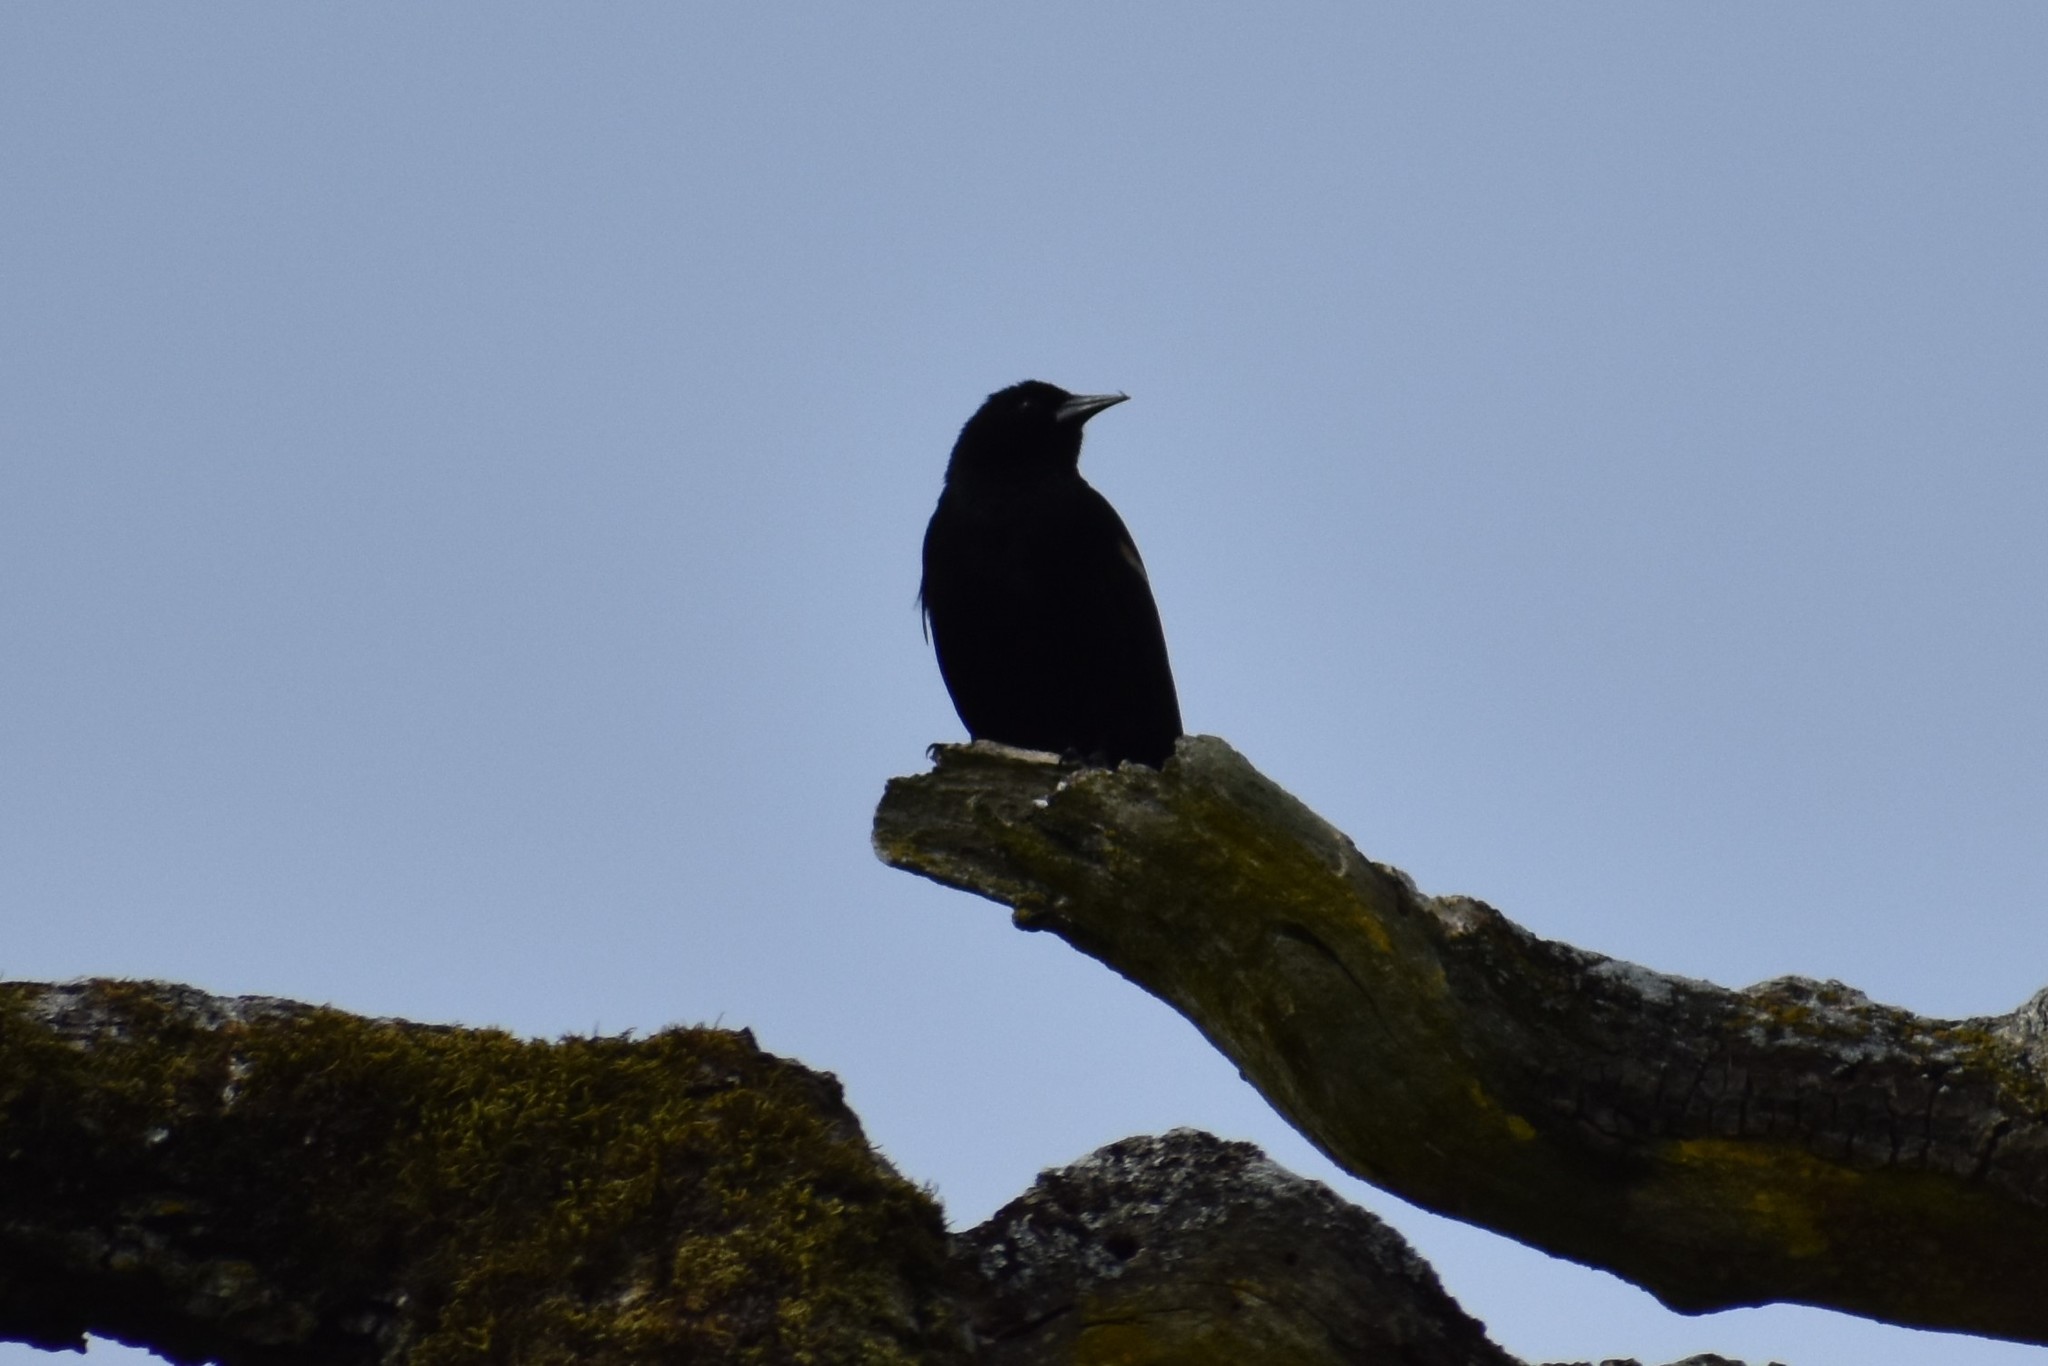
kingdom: Animalia
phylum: Chordata
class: Aves
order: Passeriformes
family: Icteridae
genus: Agelaius
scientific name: Agelaius phoeniceus
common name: Red-winged blackbird
